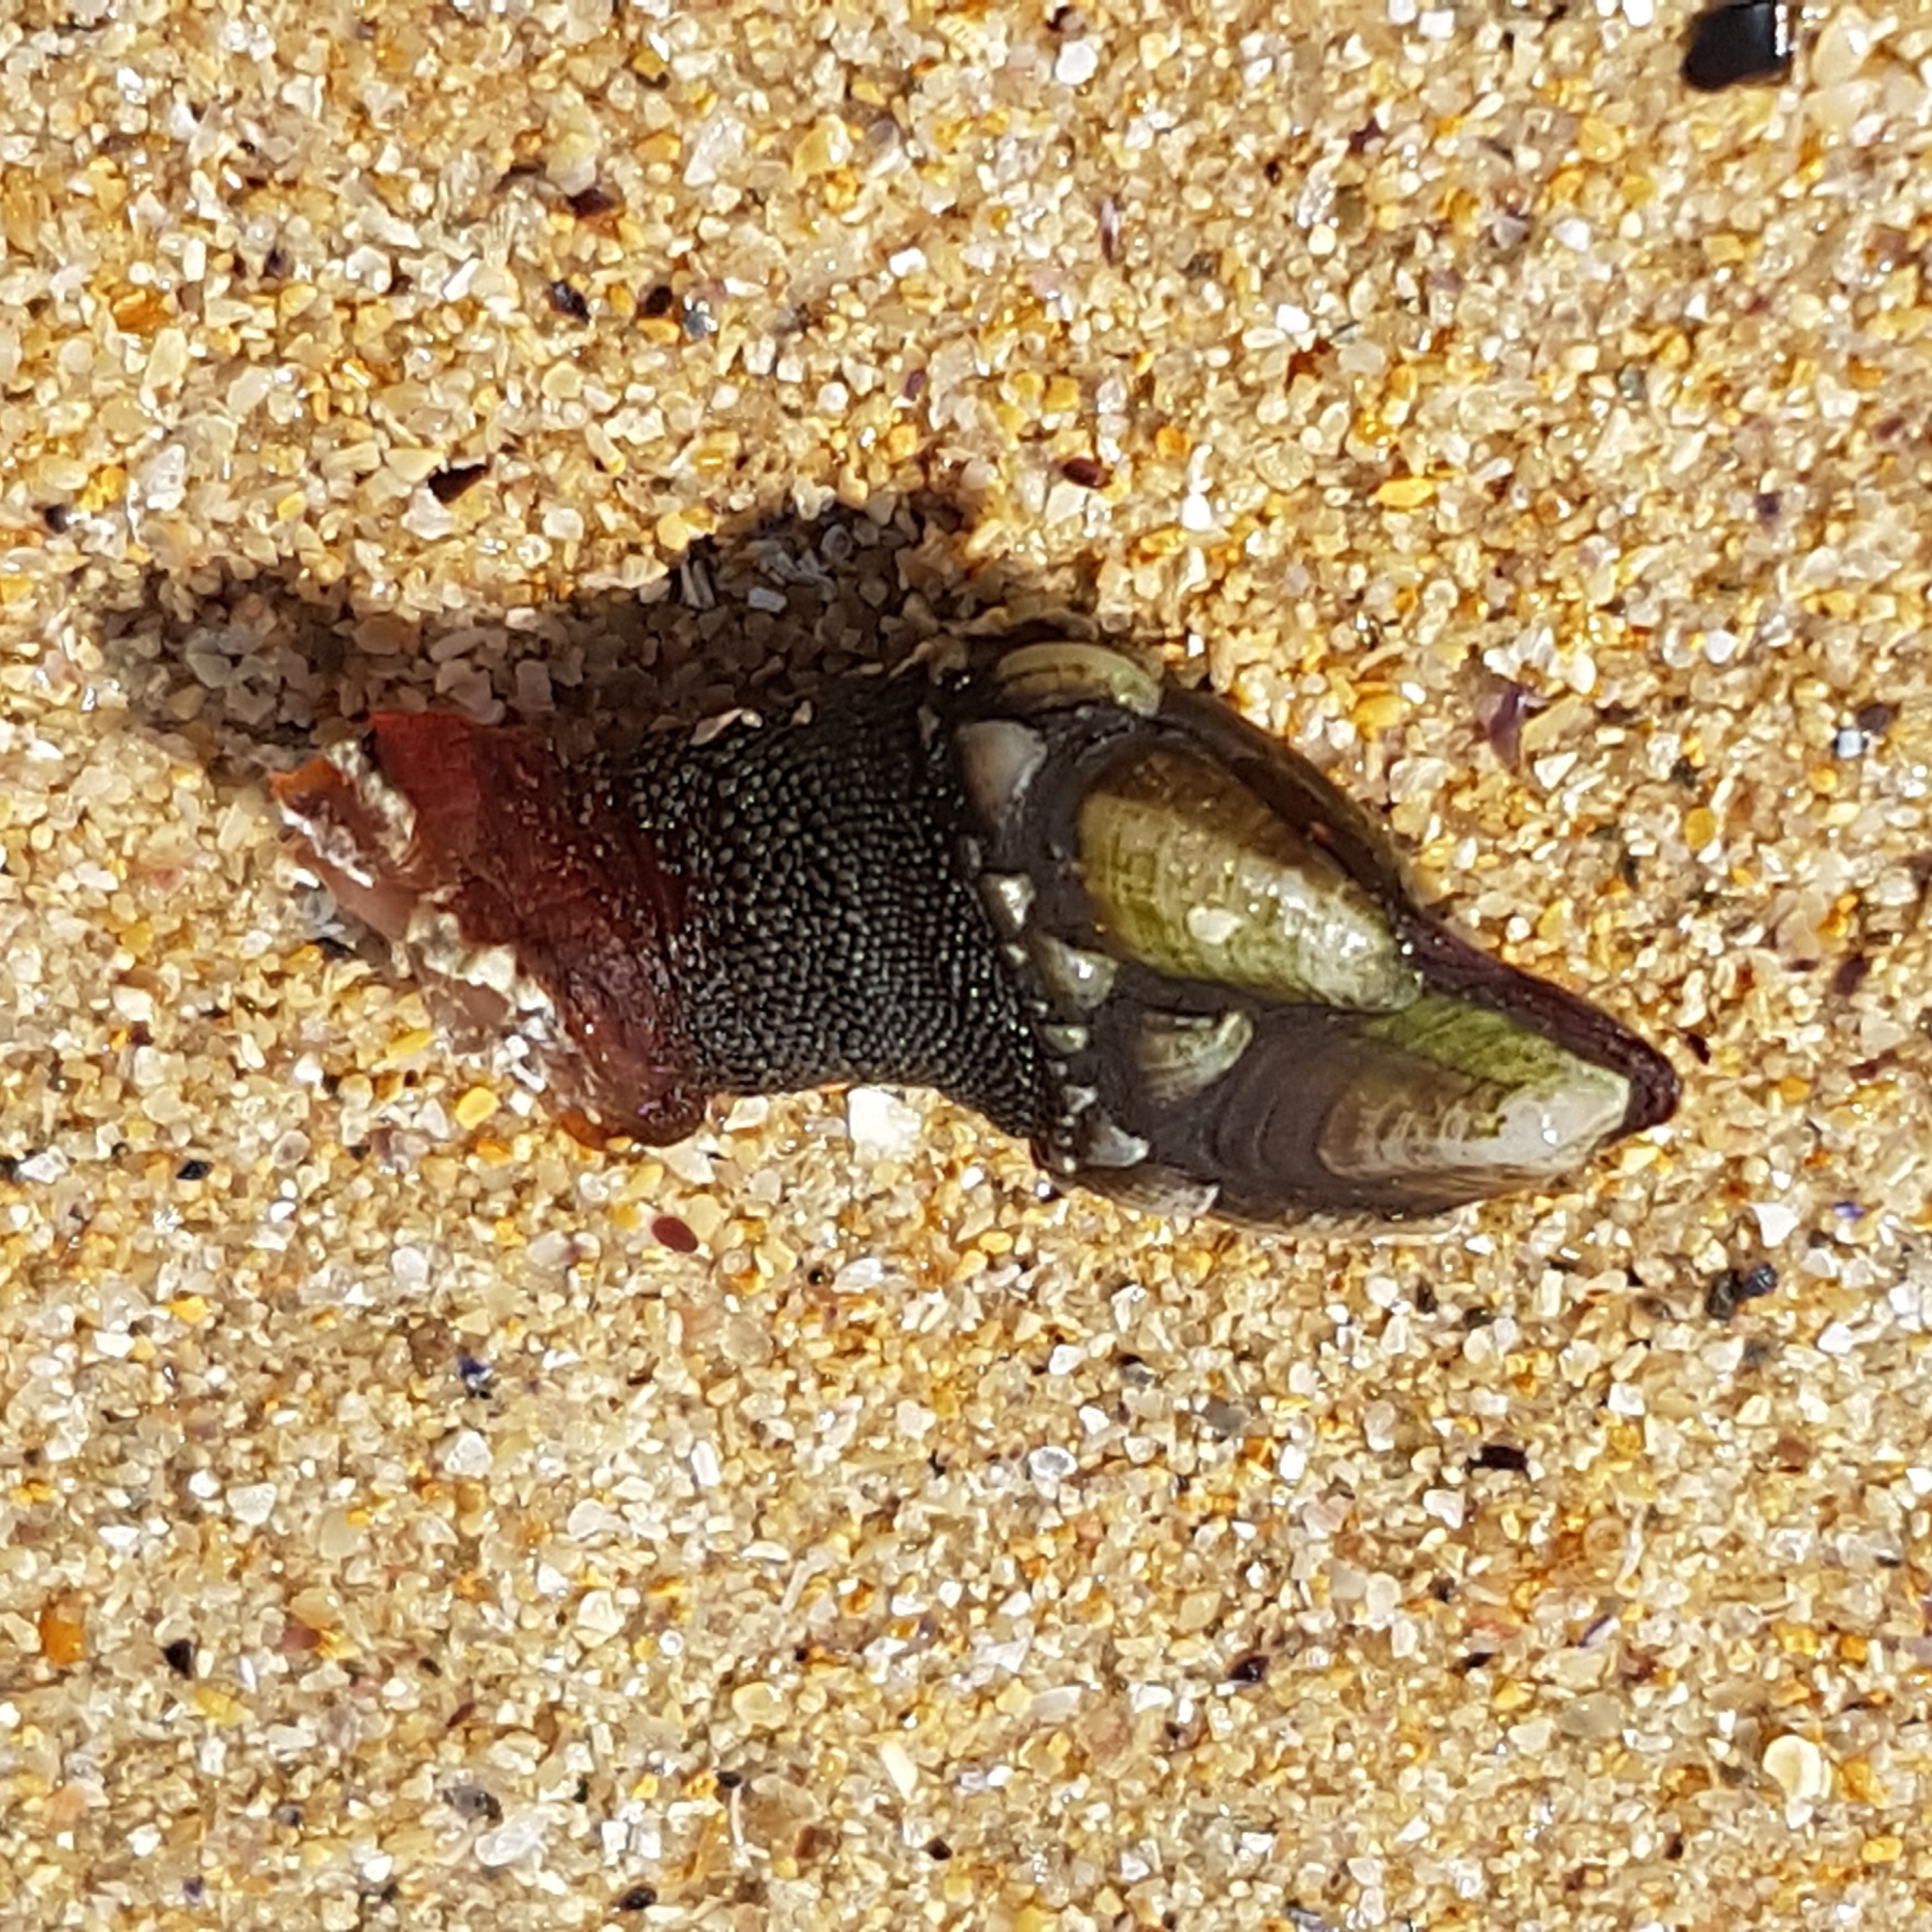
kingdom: Animalia
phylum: Arthropoda
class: Maxillopoda
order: Pedunculata
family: Pollicipedidae
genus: Pollicipes
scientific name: Pollicipes pollicipes
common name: Gooseneck barnacle
